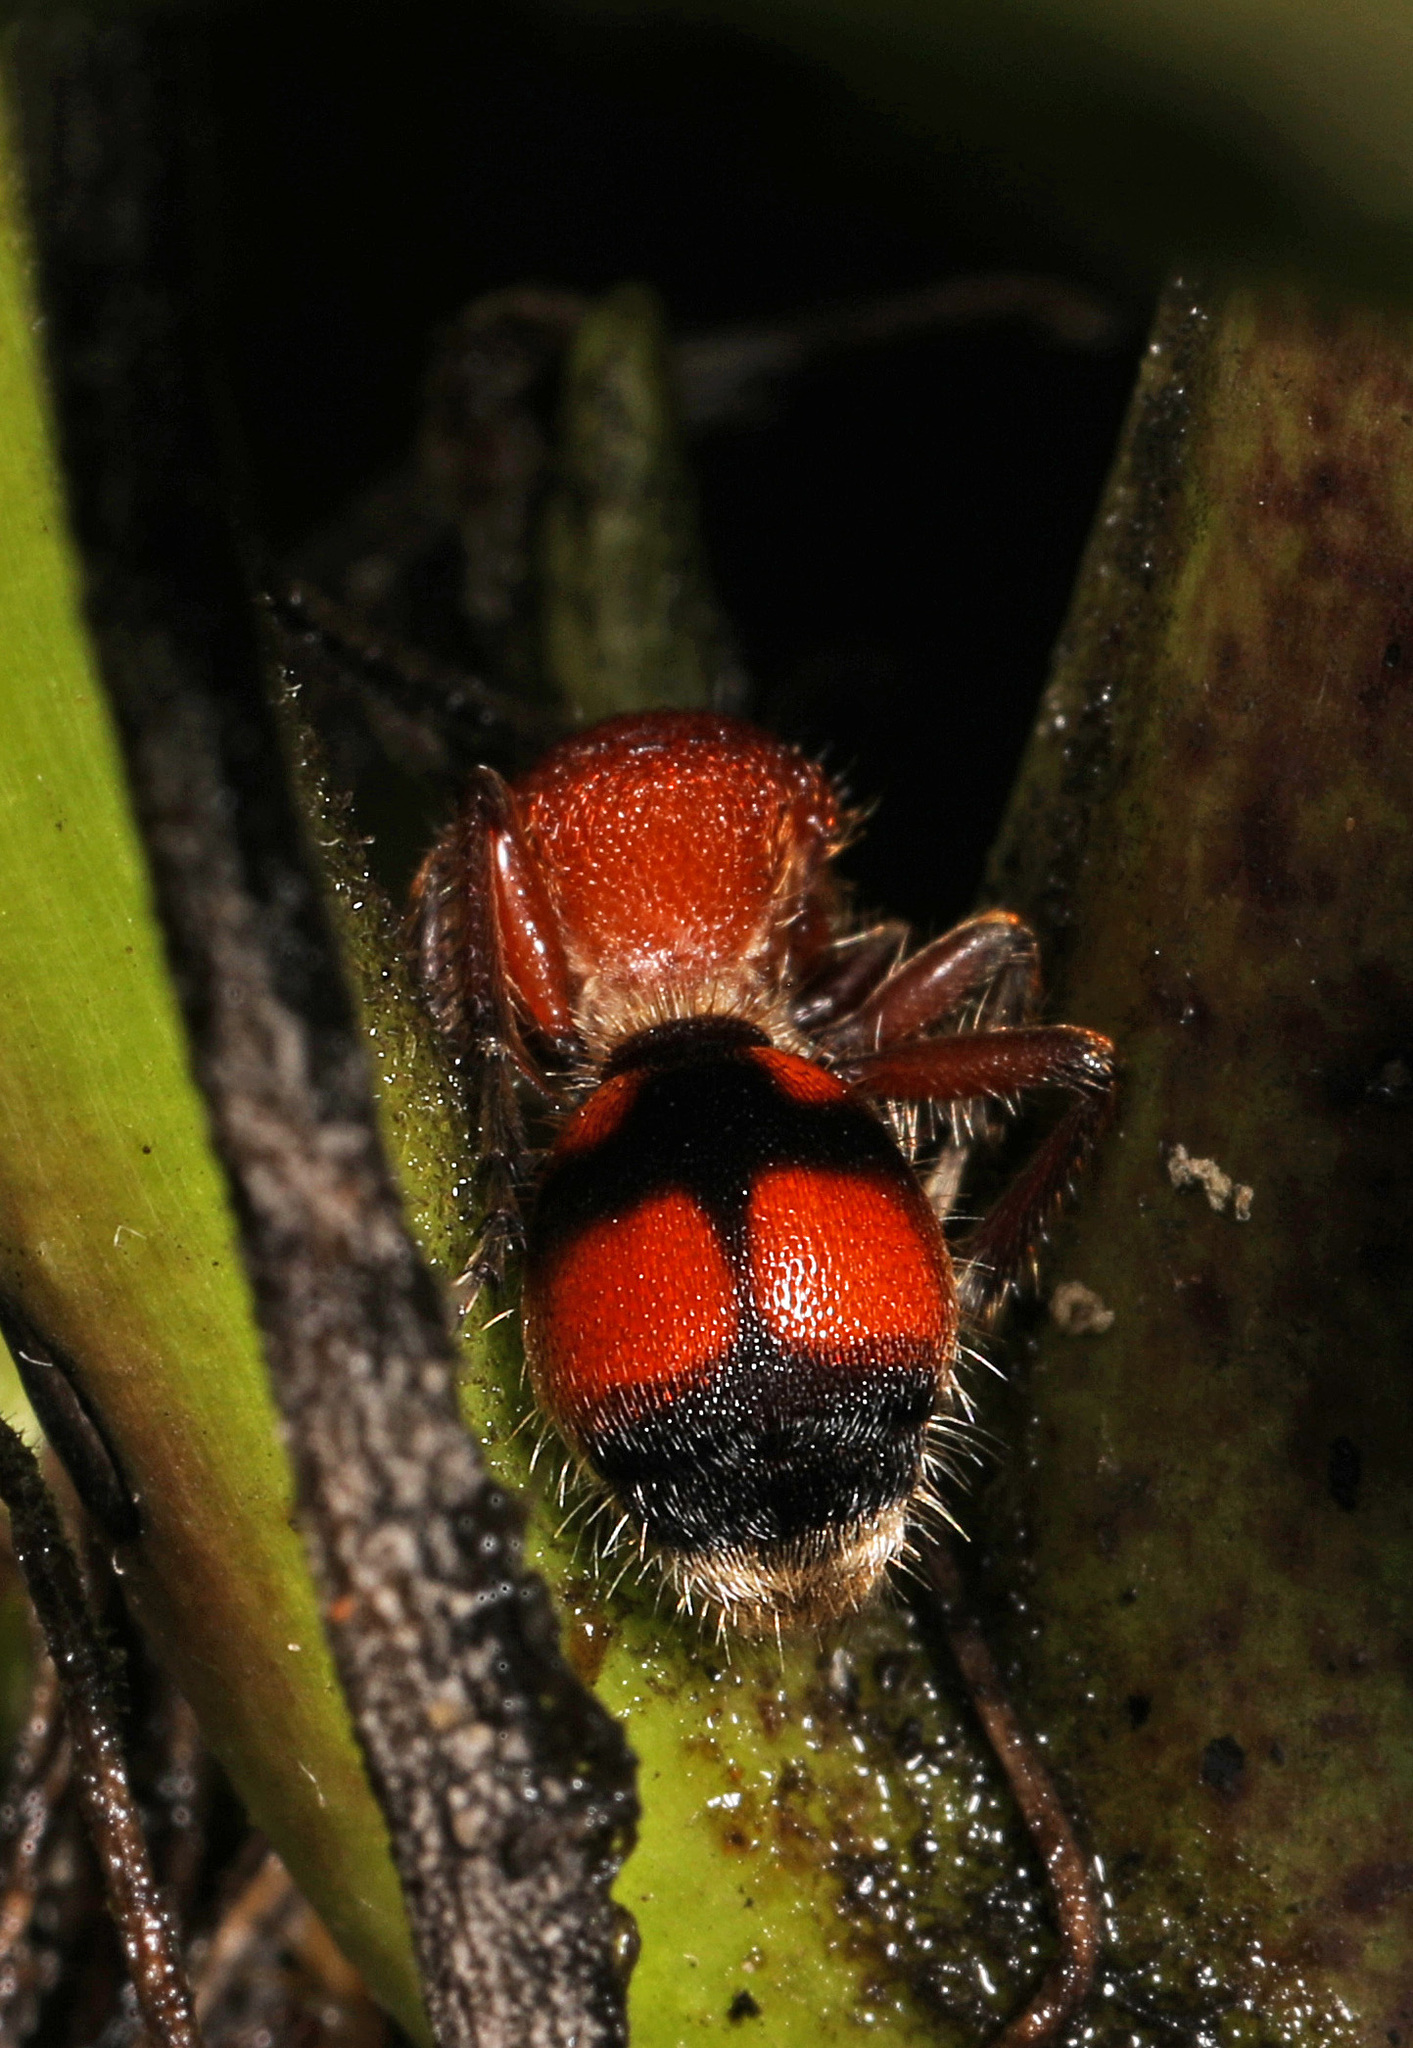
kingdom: Animalia
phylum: Arthropoda
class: Insecta
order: Hymenoptera
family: Mutillidae
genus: Dasymutilla
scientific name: Dasymutilla
